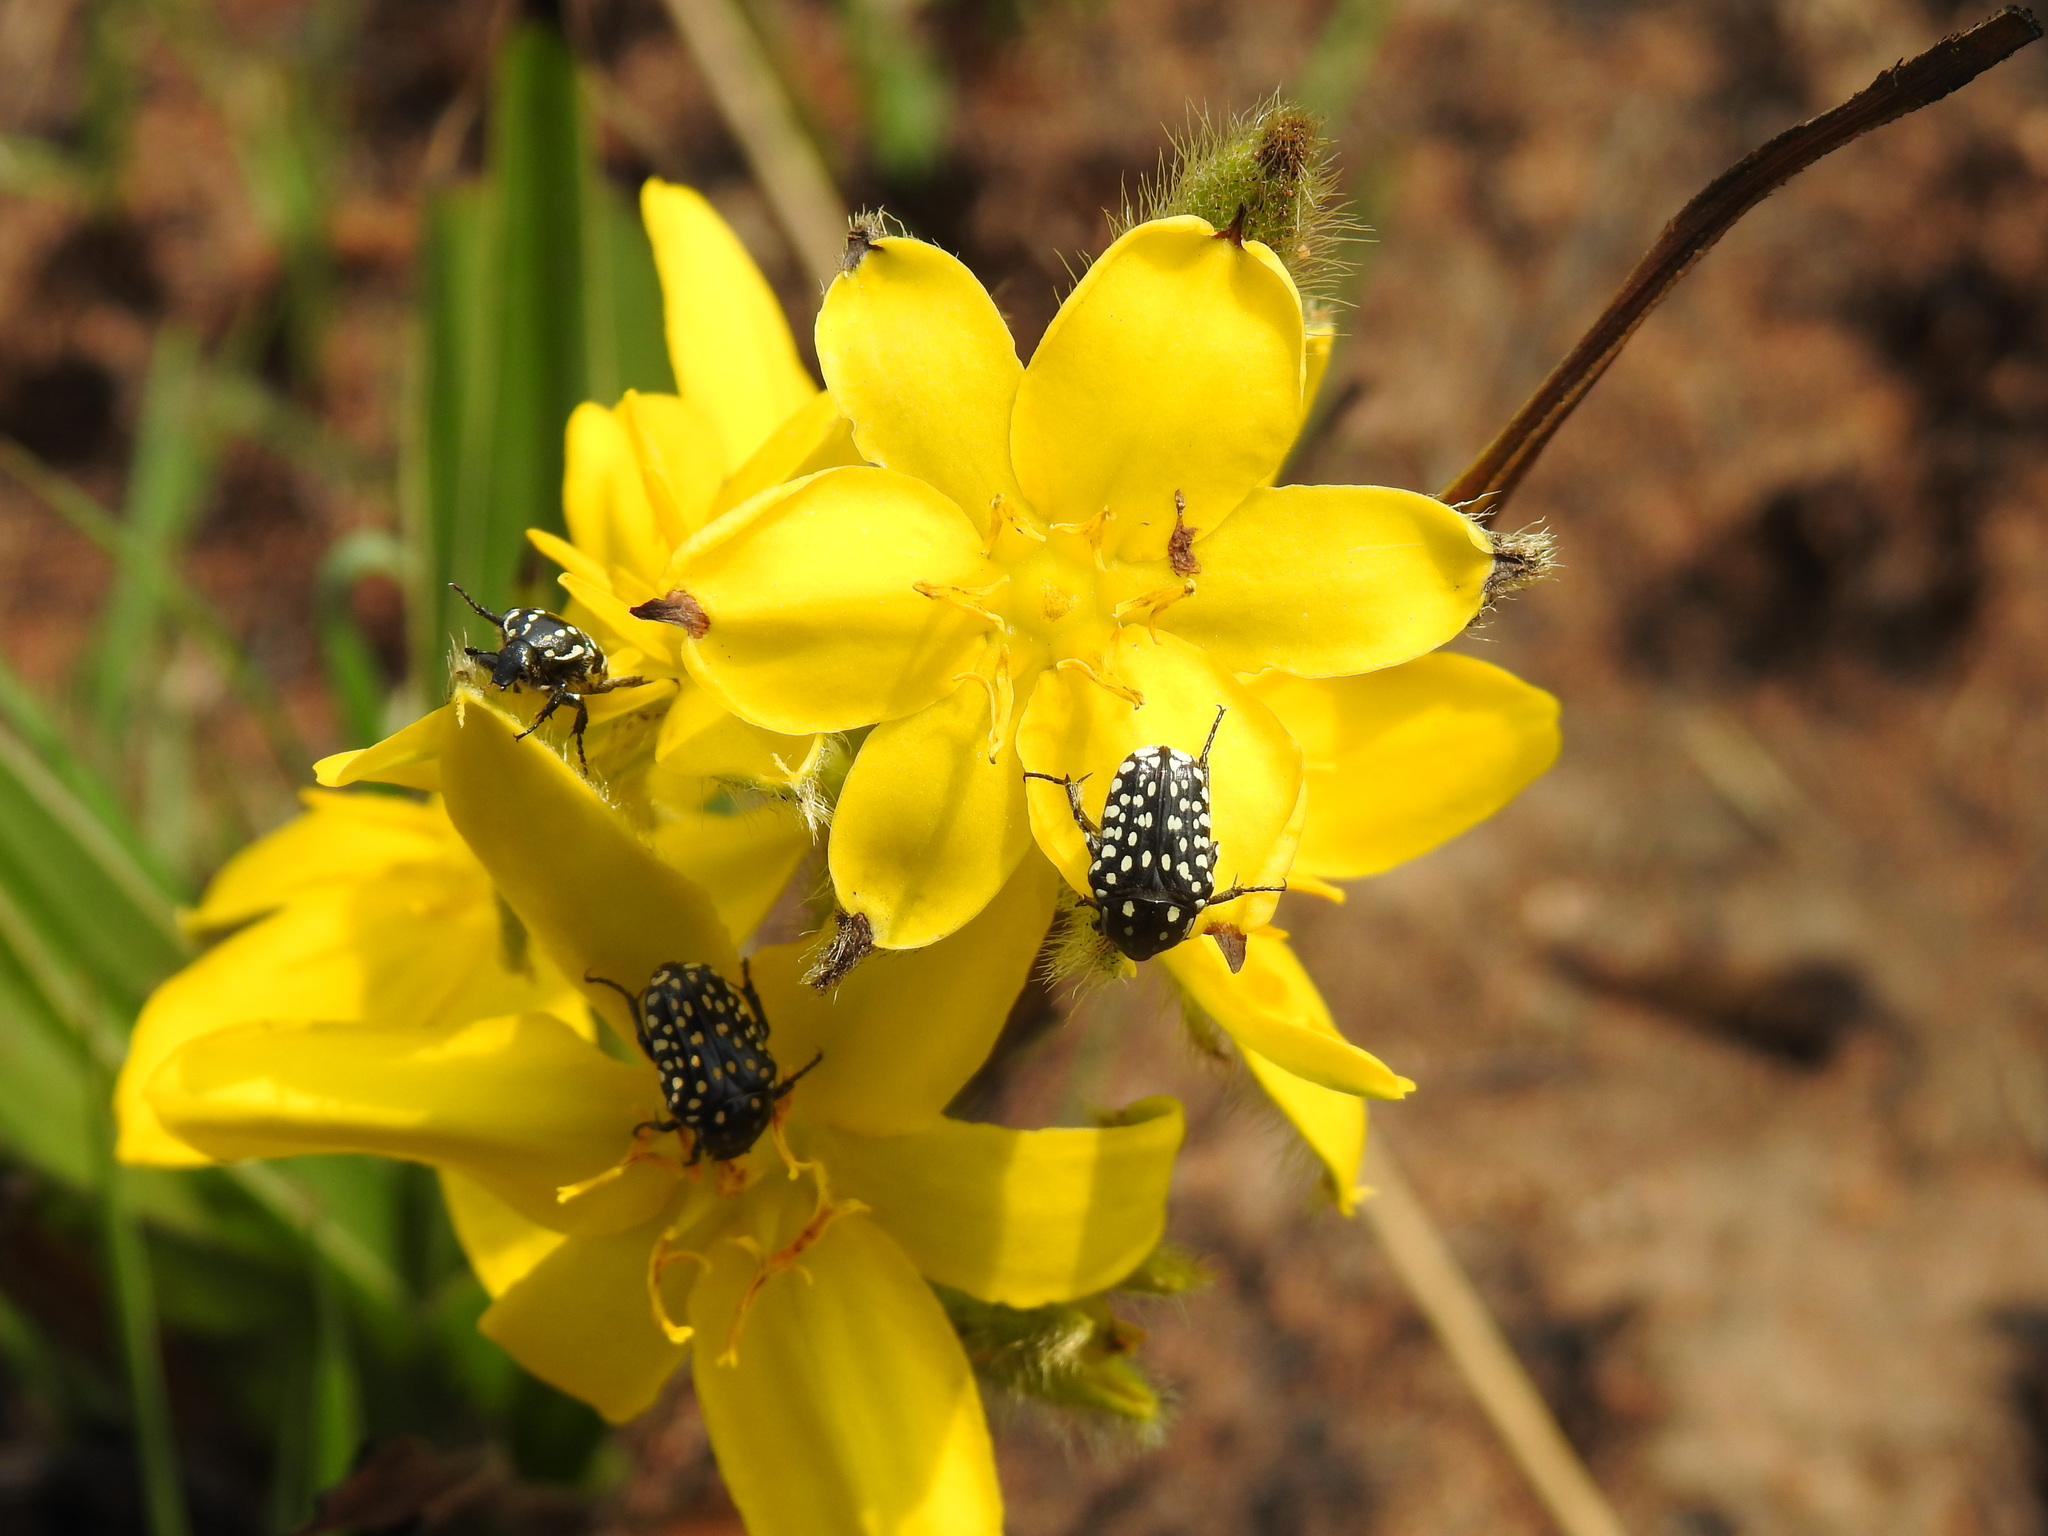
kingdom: Animalia
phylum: Arthropoda
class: Insecta
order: Coleoptera
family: Scarabaeidae
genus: Cyrtothyrea
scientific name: Cyrtothyrea testaceoguttata
